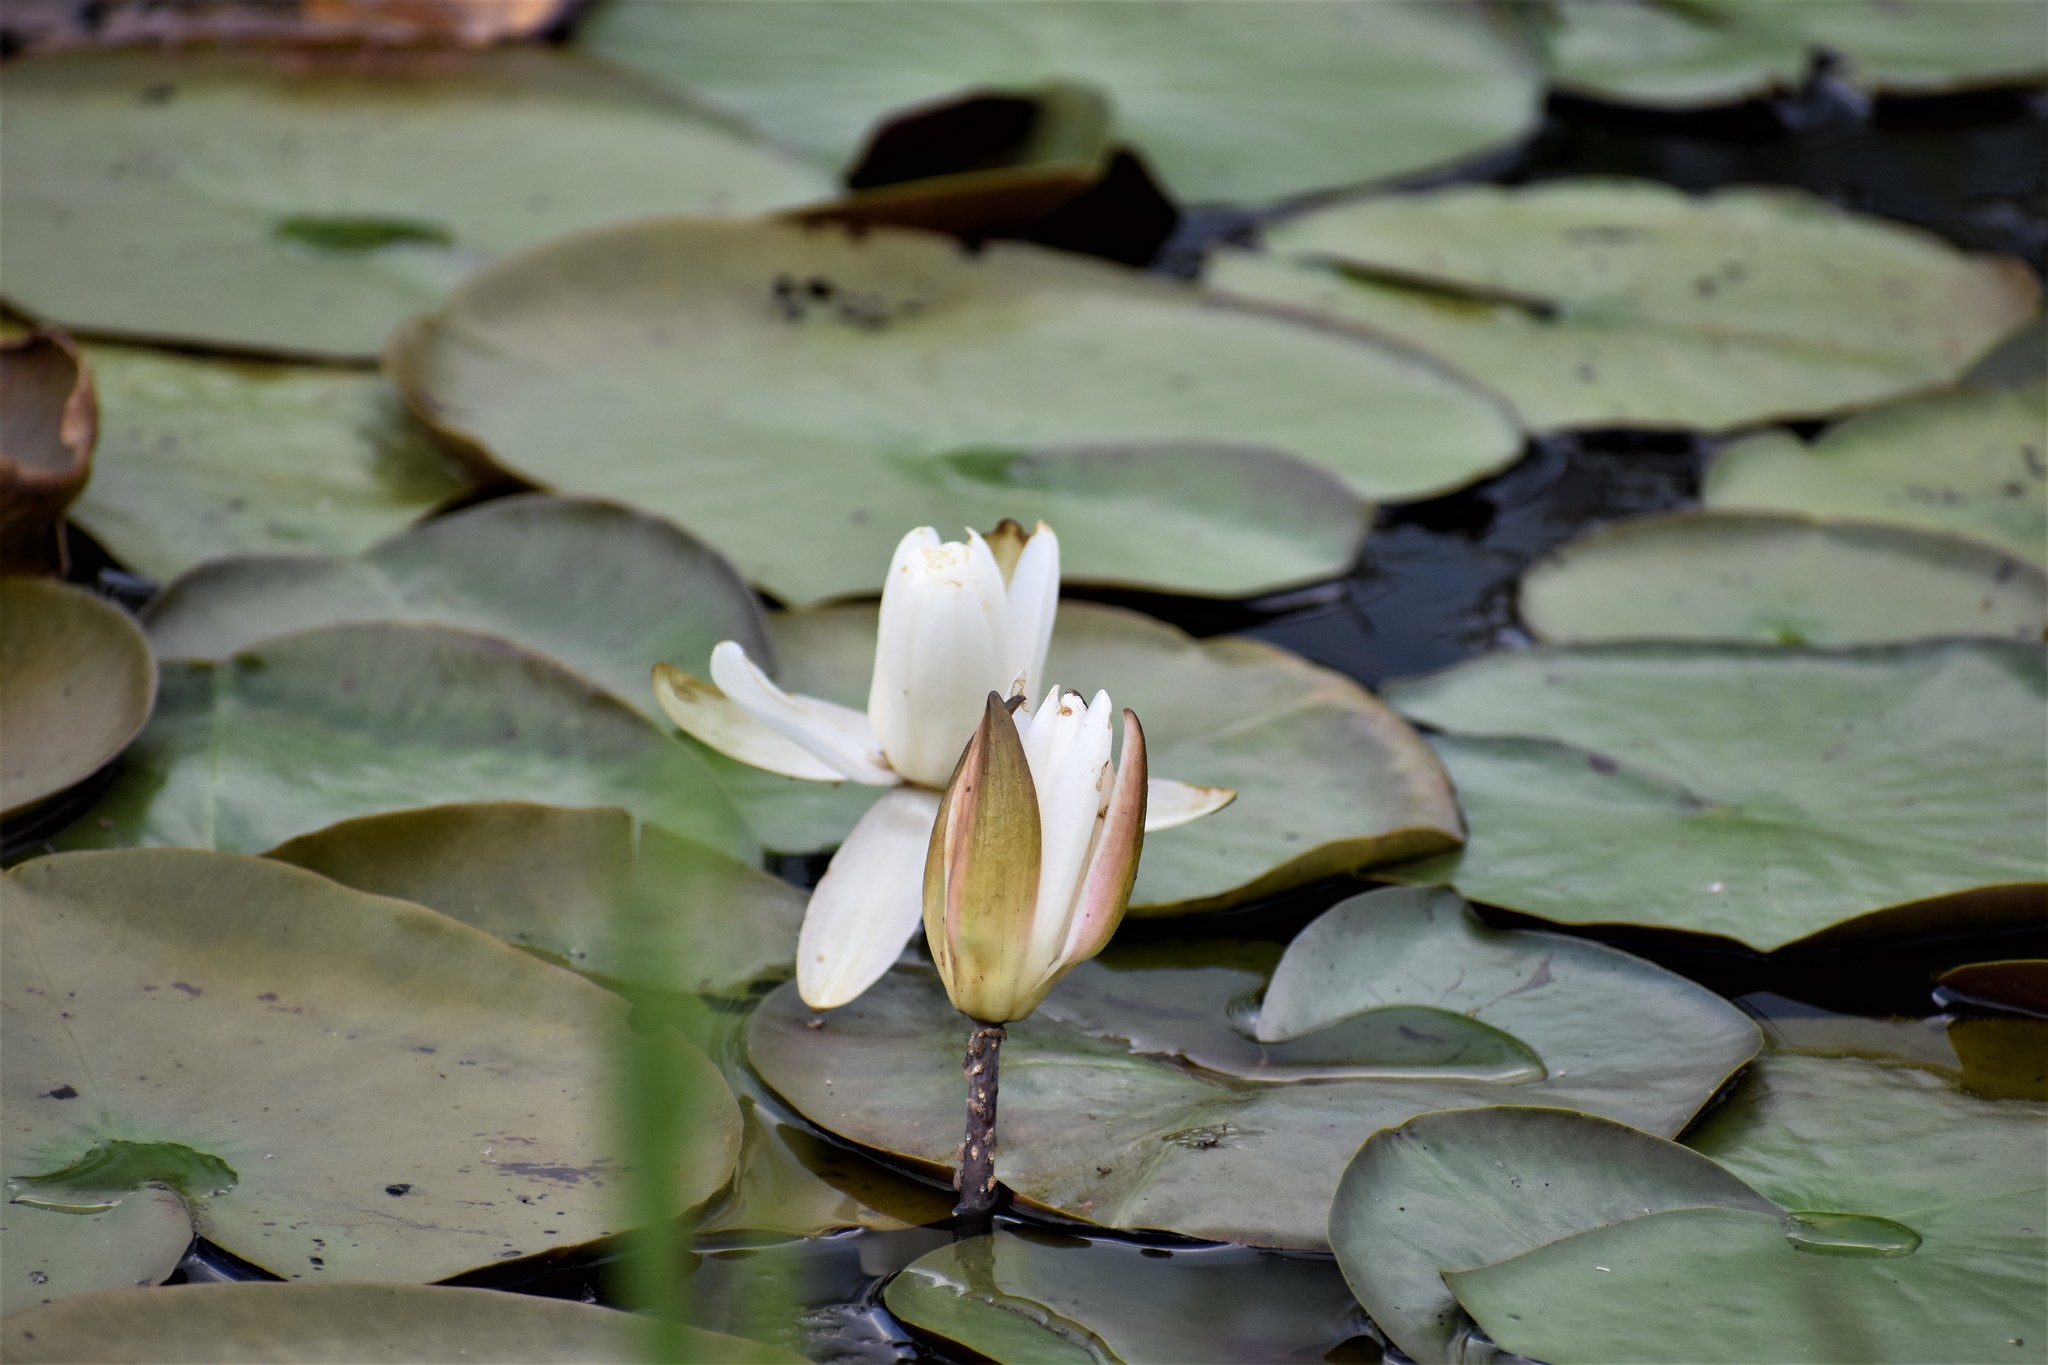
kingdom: Plantae
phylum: Tracheophyta
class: Magnoliopsida
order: Nymphaeales
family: Nymphaeaceae
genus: Nymphaea
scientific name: Nymphaea odorata
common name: Fragrant water-lily
